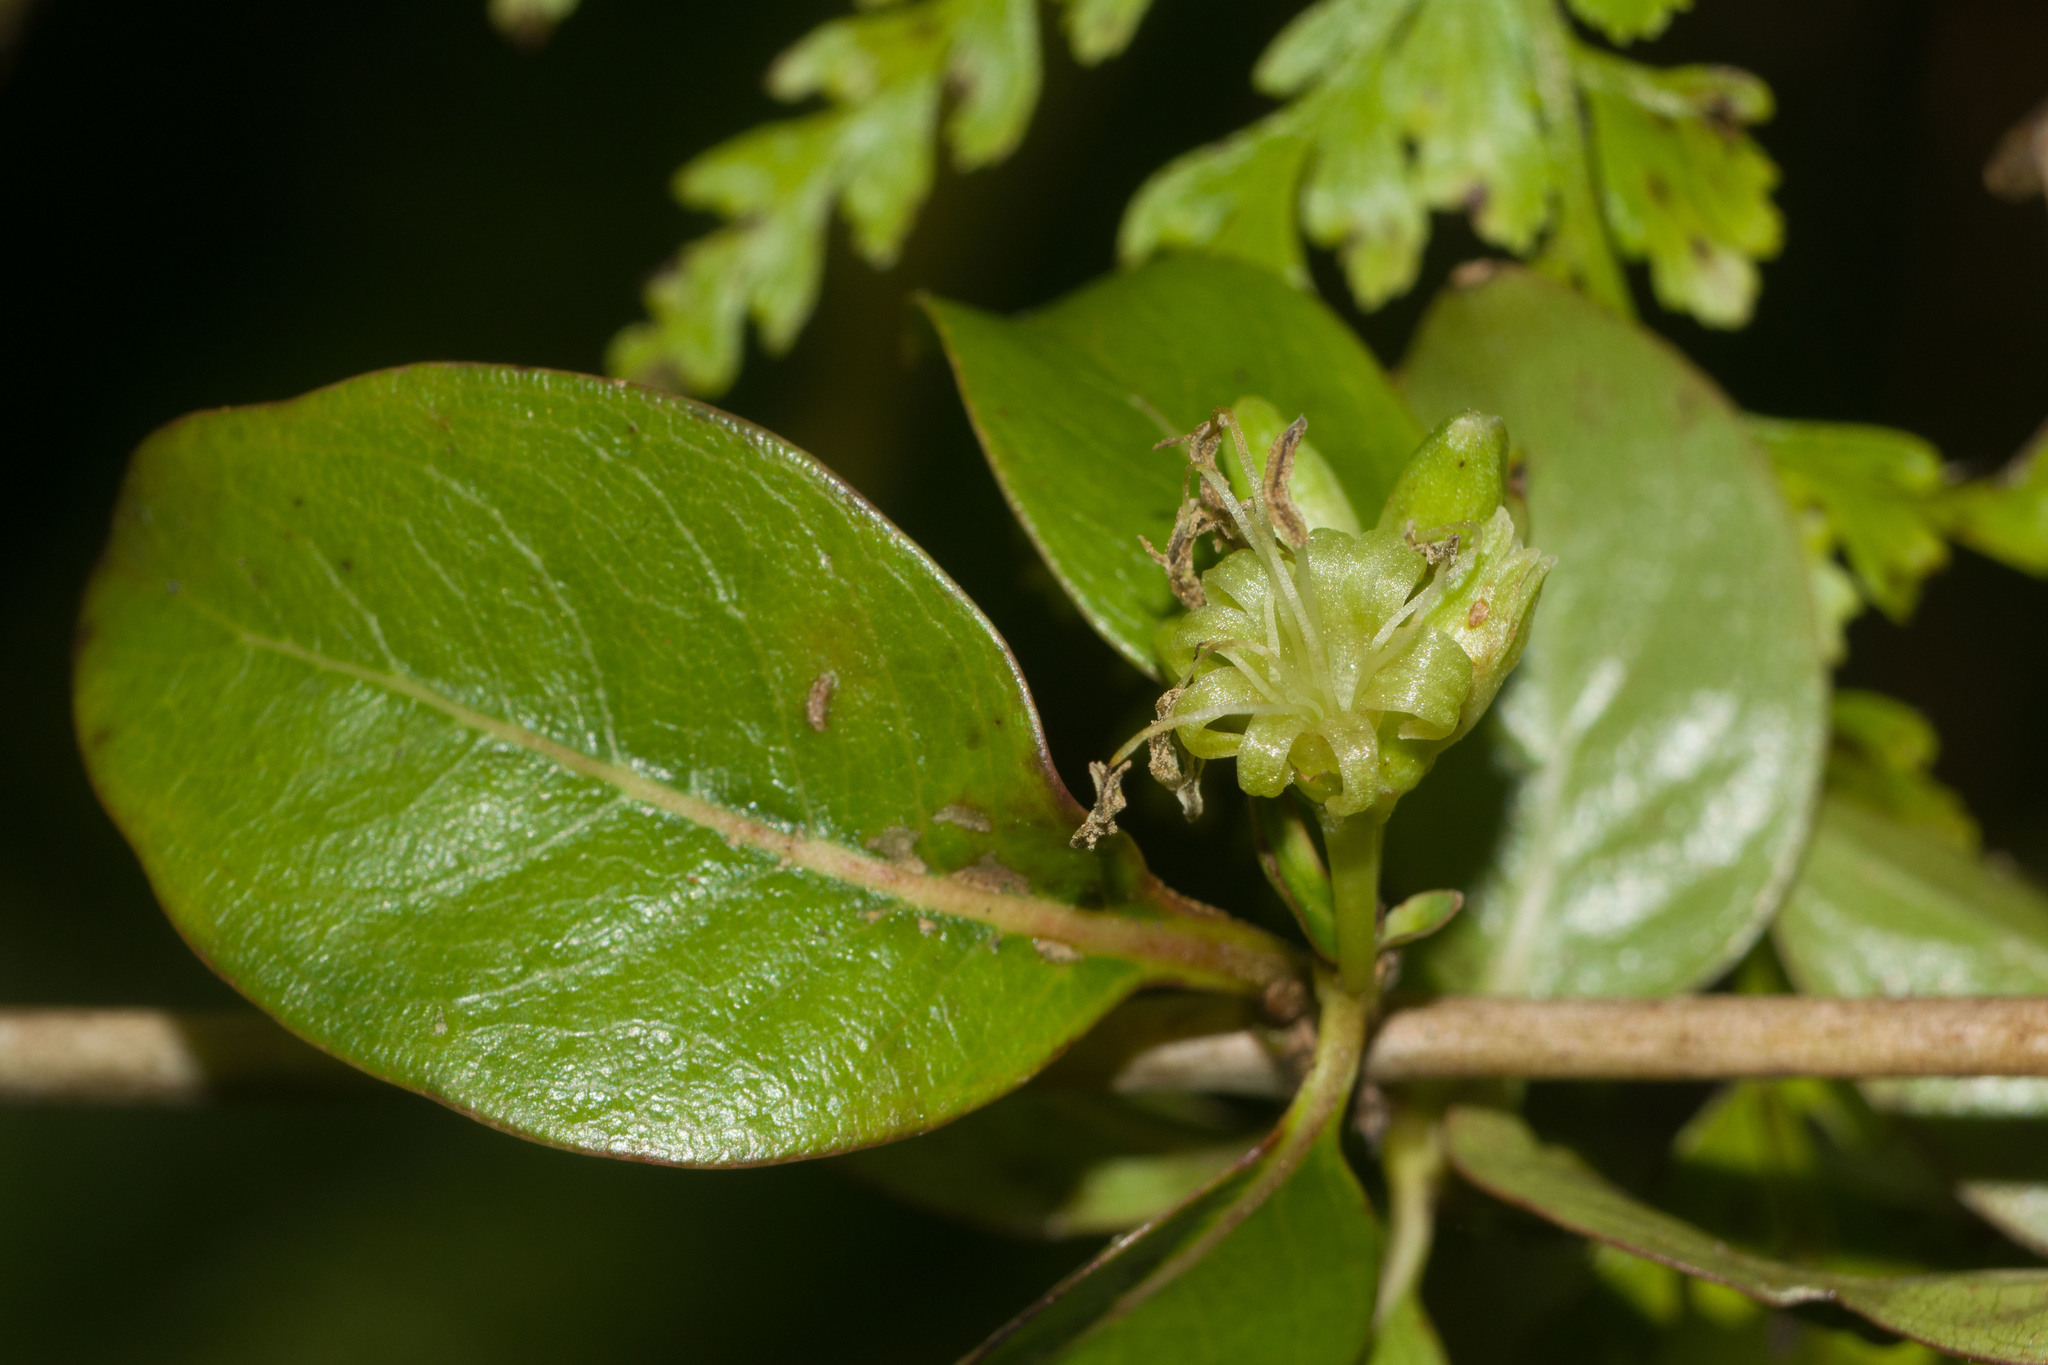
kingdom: Plantae
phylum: Tracheophyta
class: Magnoliopsida
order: Gentianales
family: Rubiaceae
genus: Coprosma
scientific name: Coprosma foliosa
